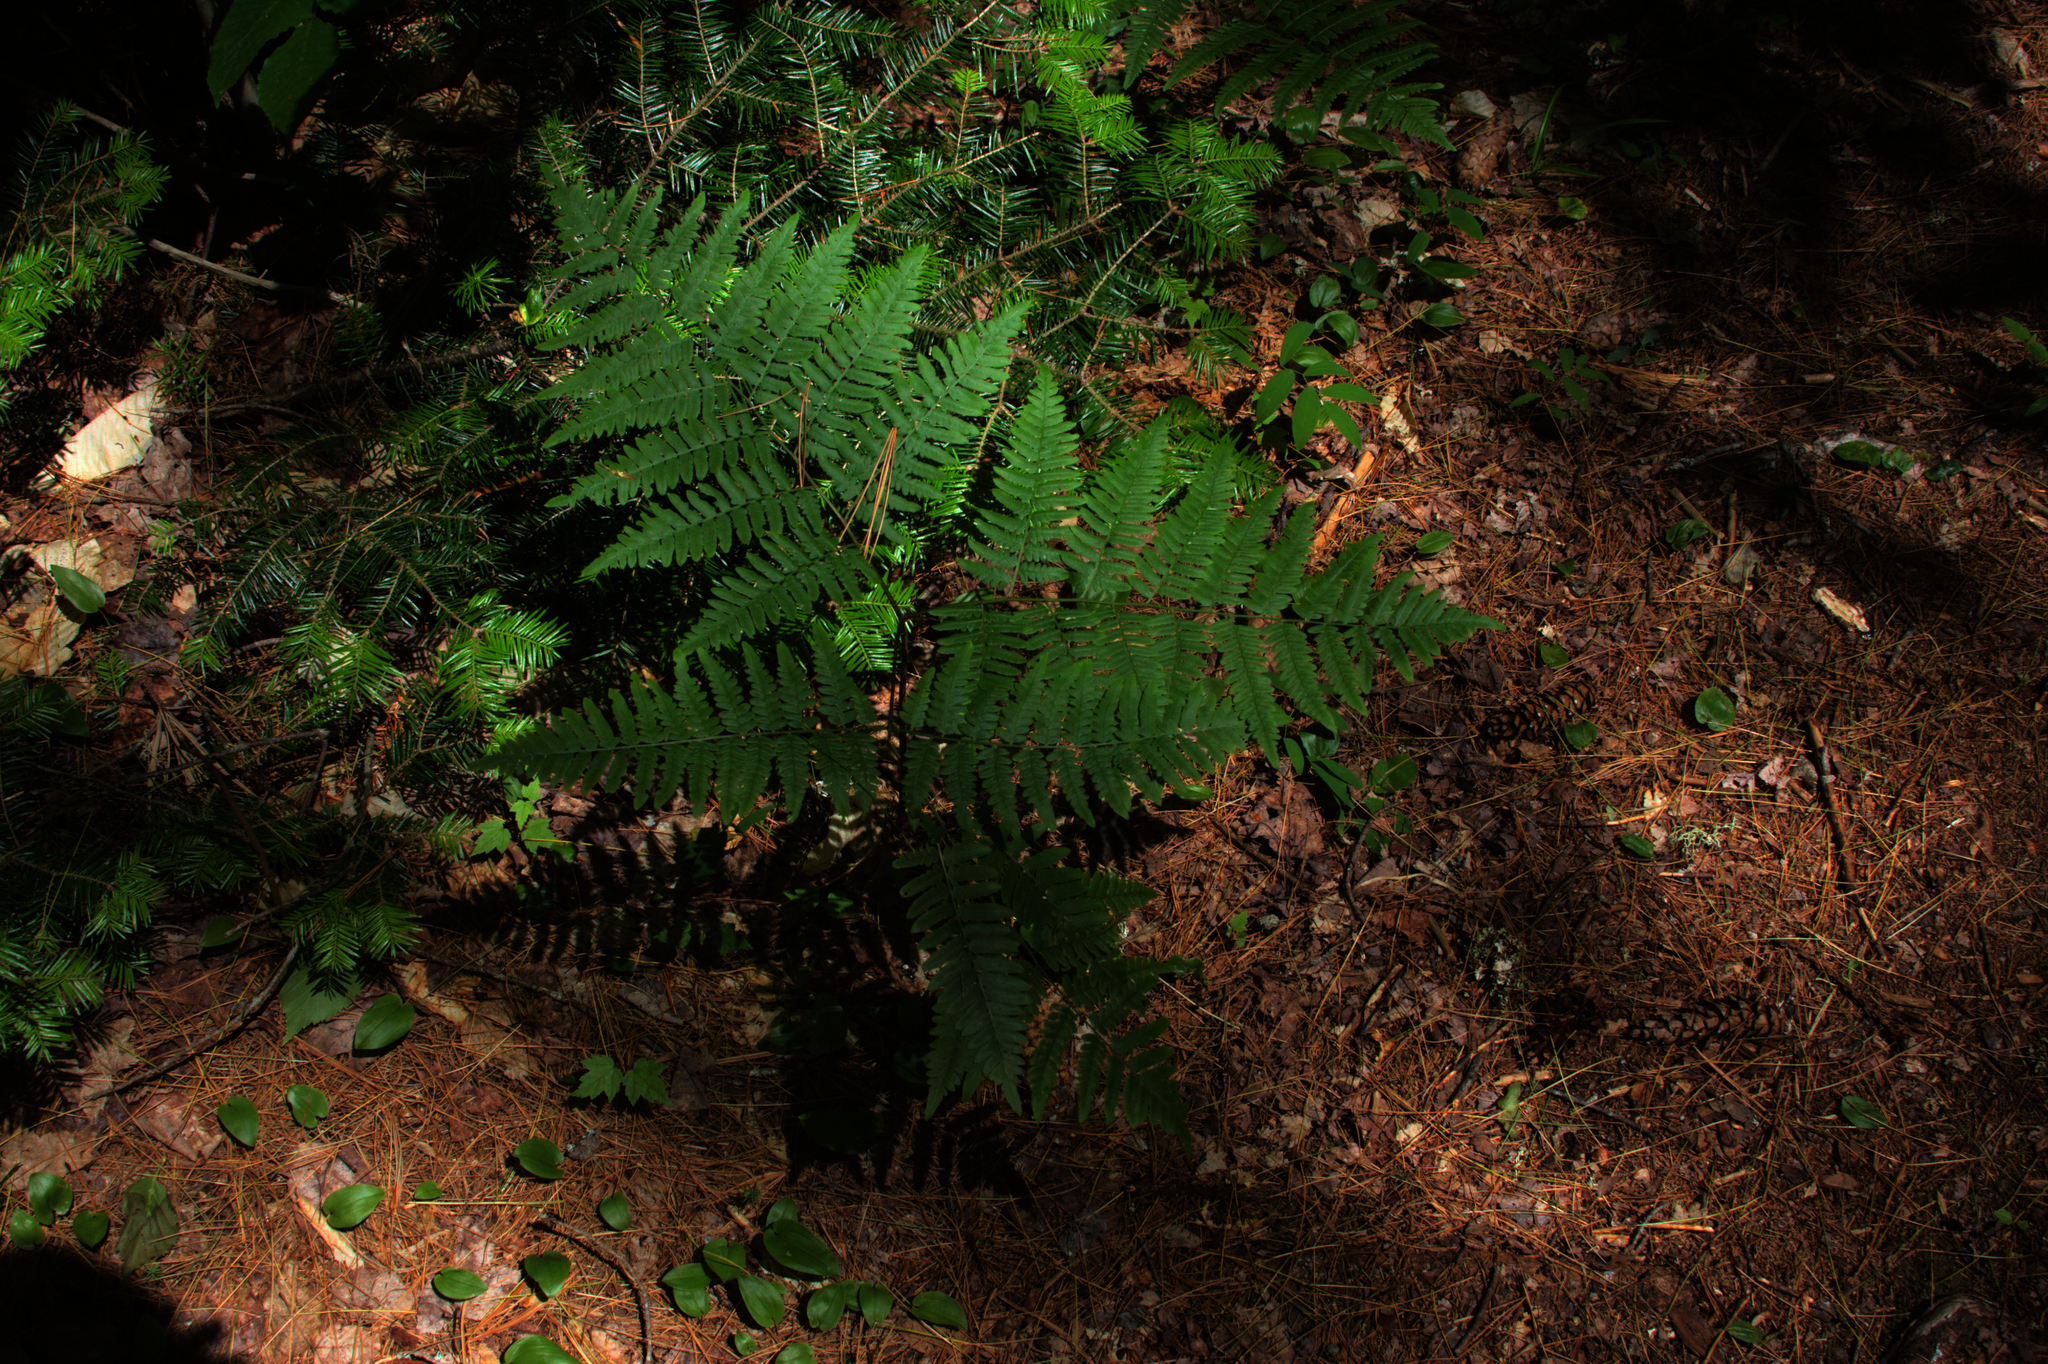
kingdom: Plantae
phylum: Tracheophyta
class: Polypodiopsida
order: Polypodiales
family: Dennstaedtiaceae
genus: Pteridium
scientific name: Pteridium aquilinum
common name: Bracken
